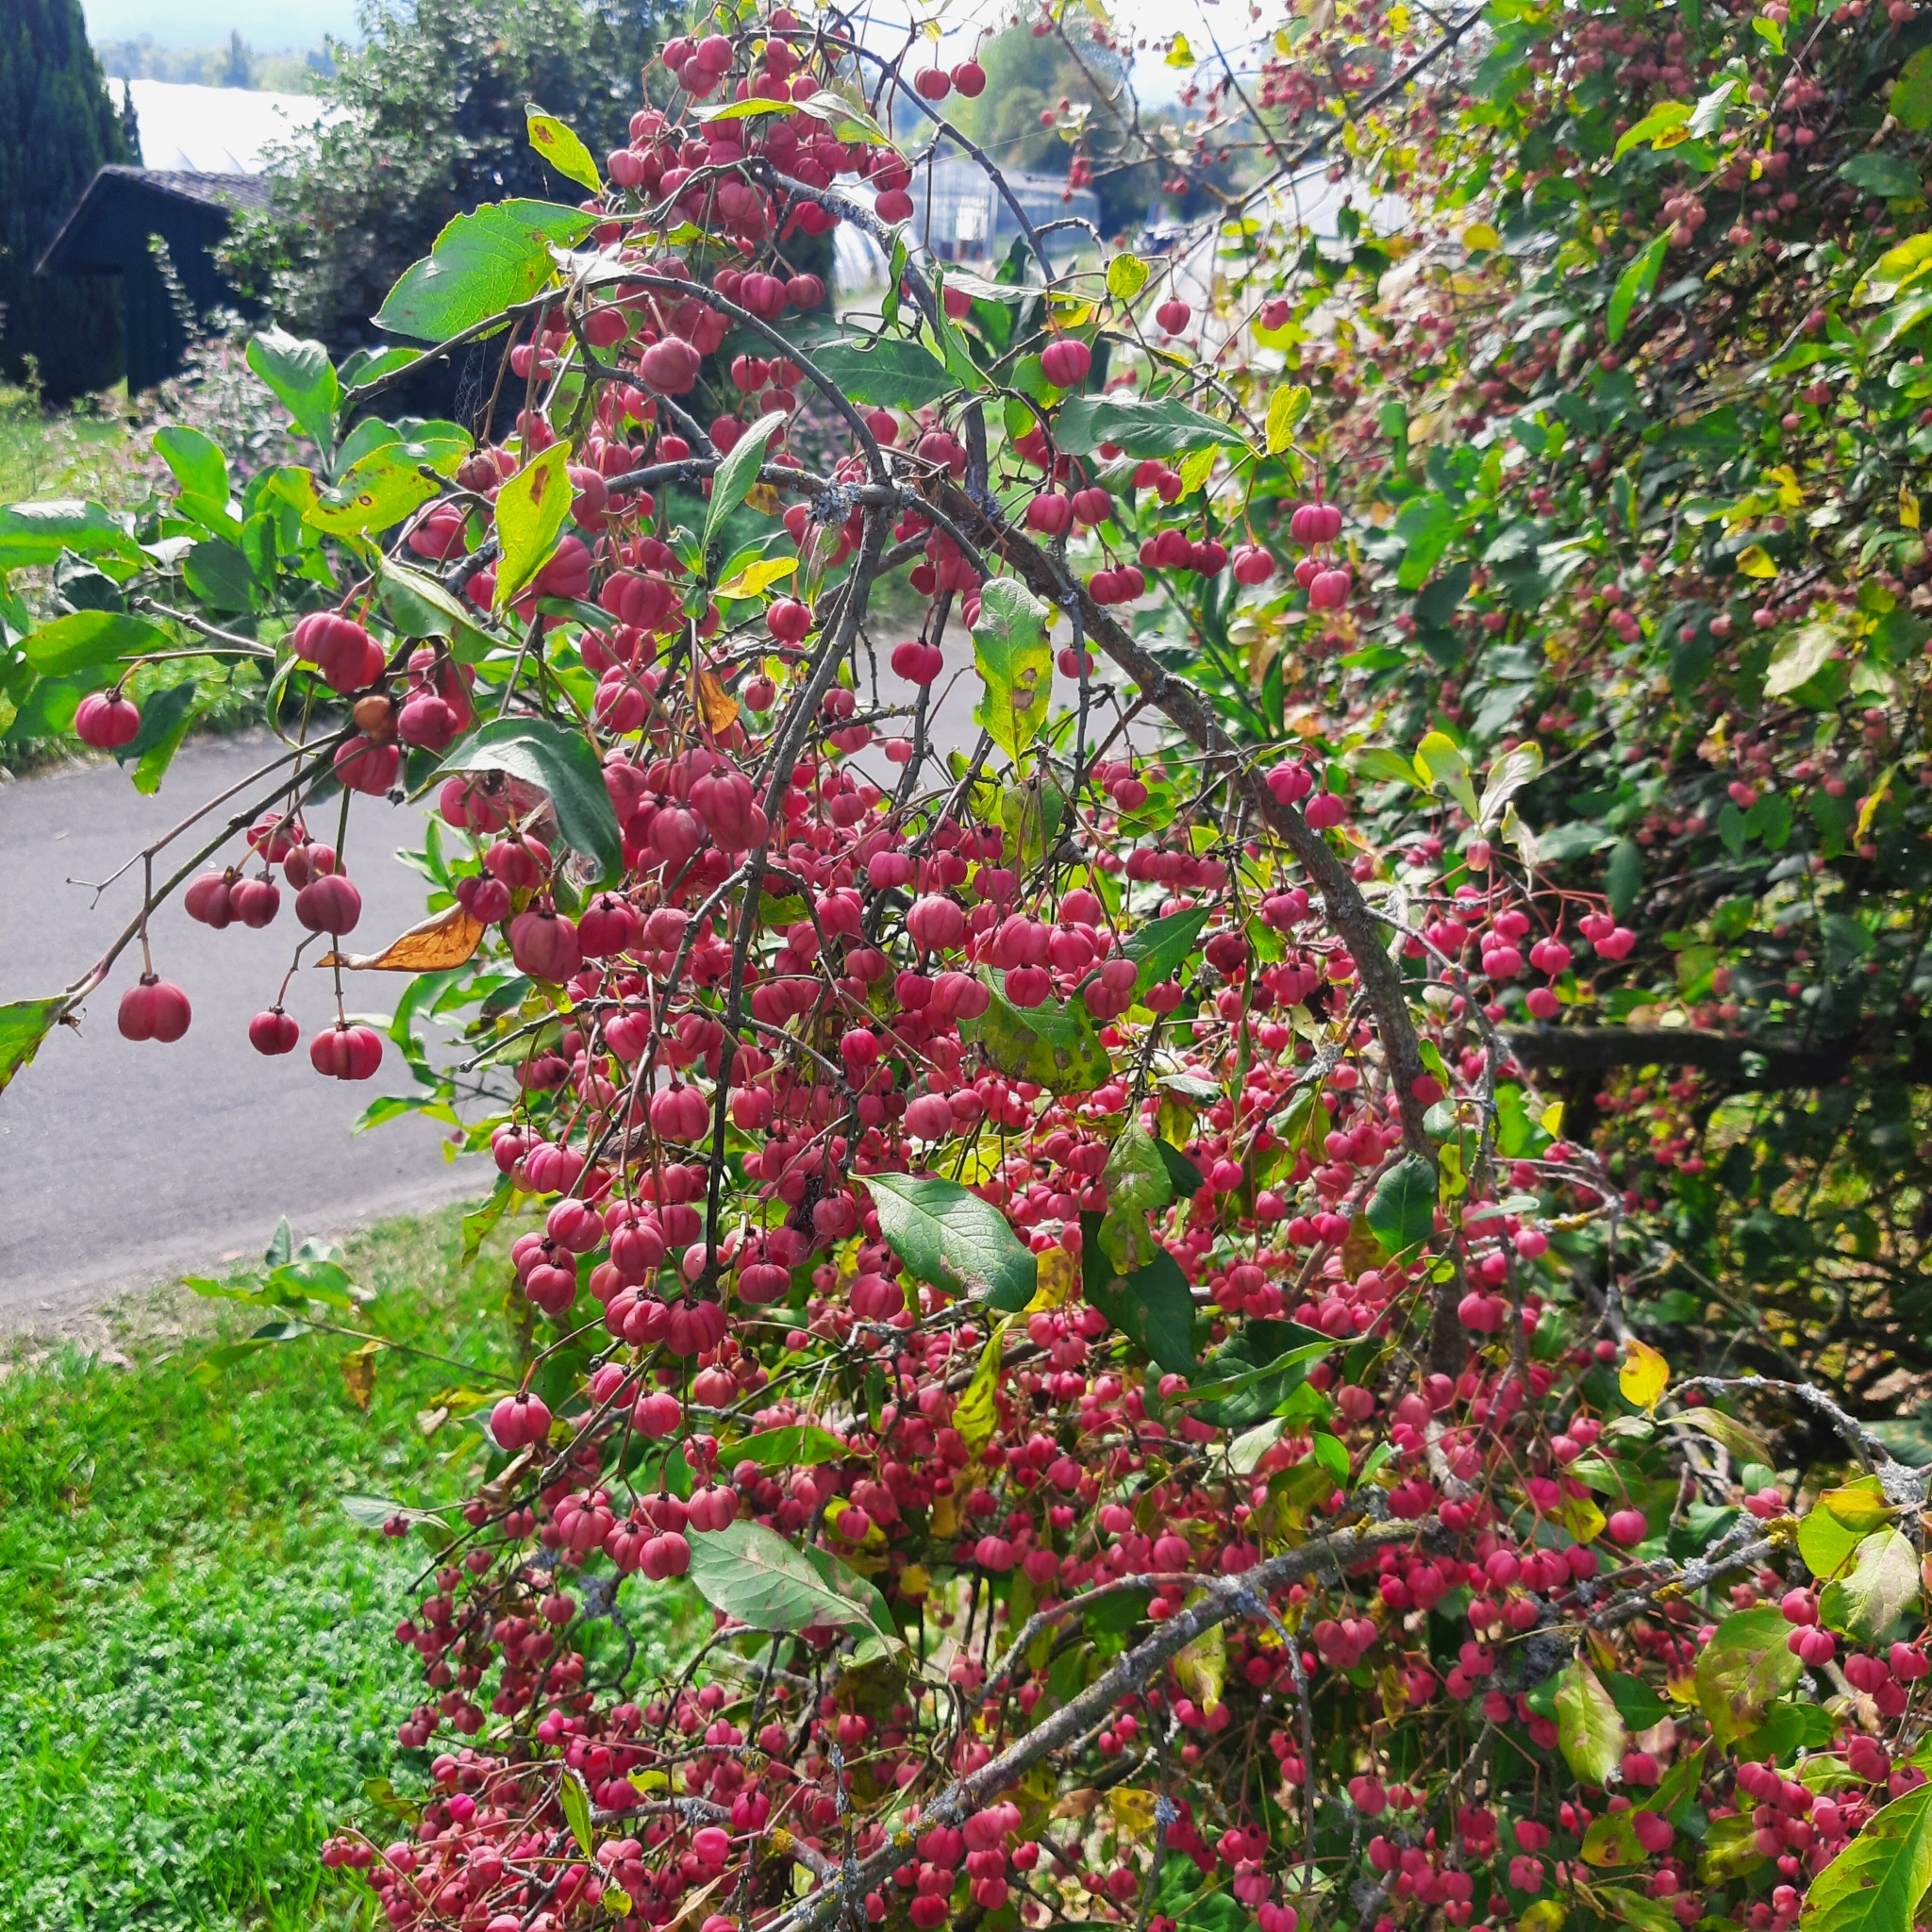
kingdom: Plantae
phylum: Tracheophyta
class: Magnoliopsida
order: Celastrales
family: Celastraceae
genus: Euonymus
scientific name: Euonymus europaeus
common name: Spindle
